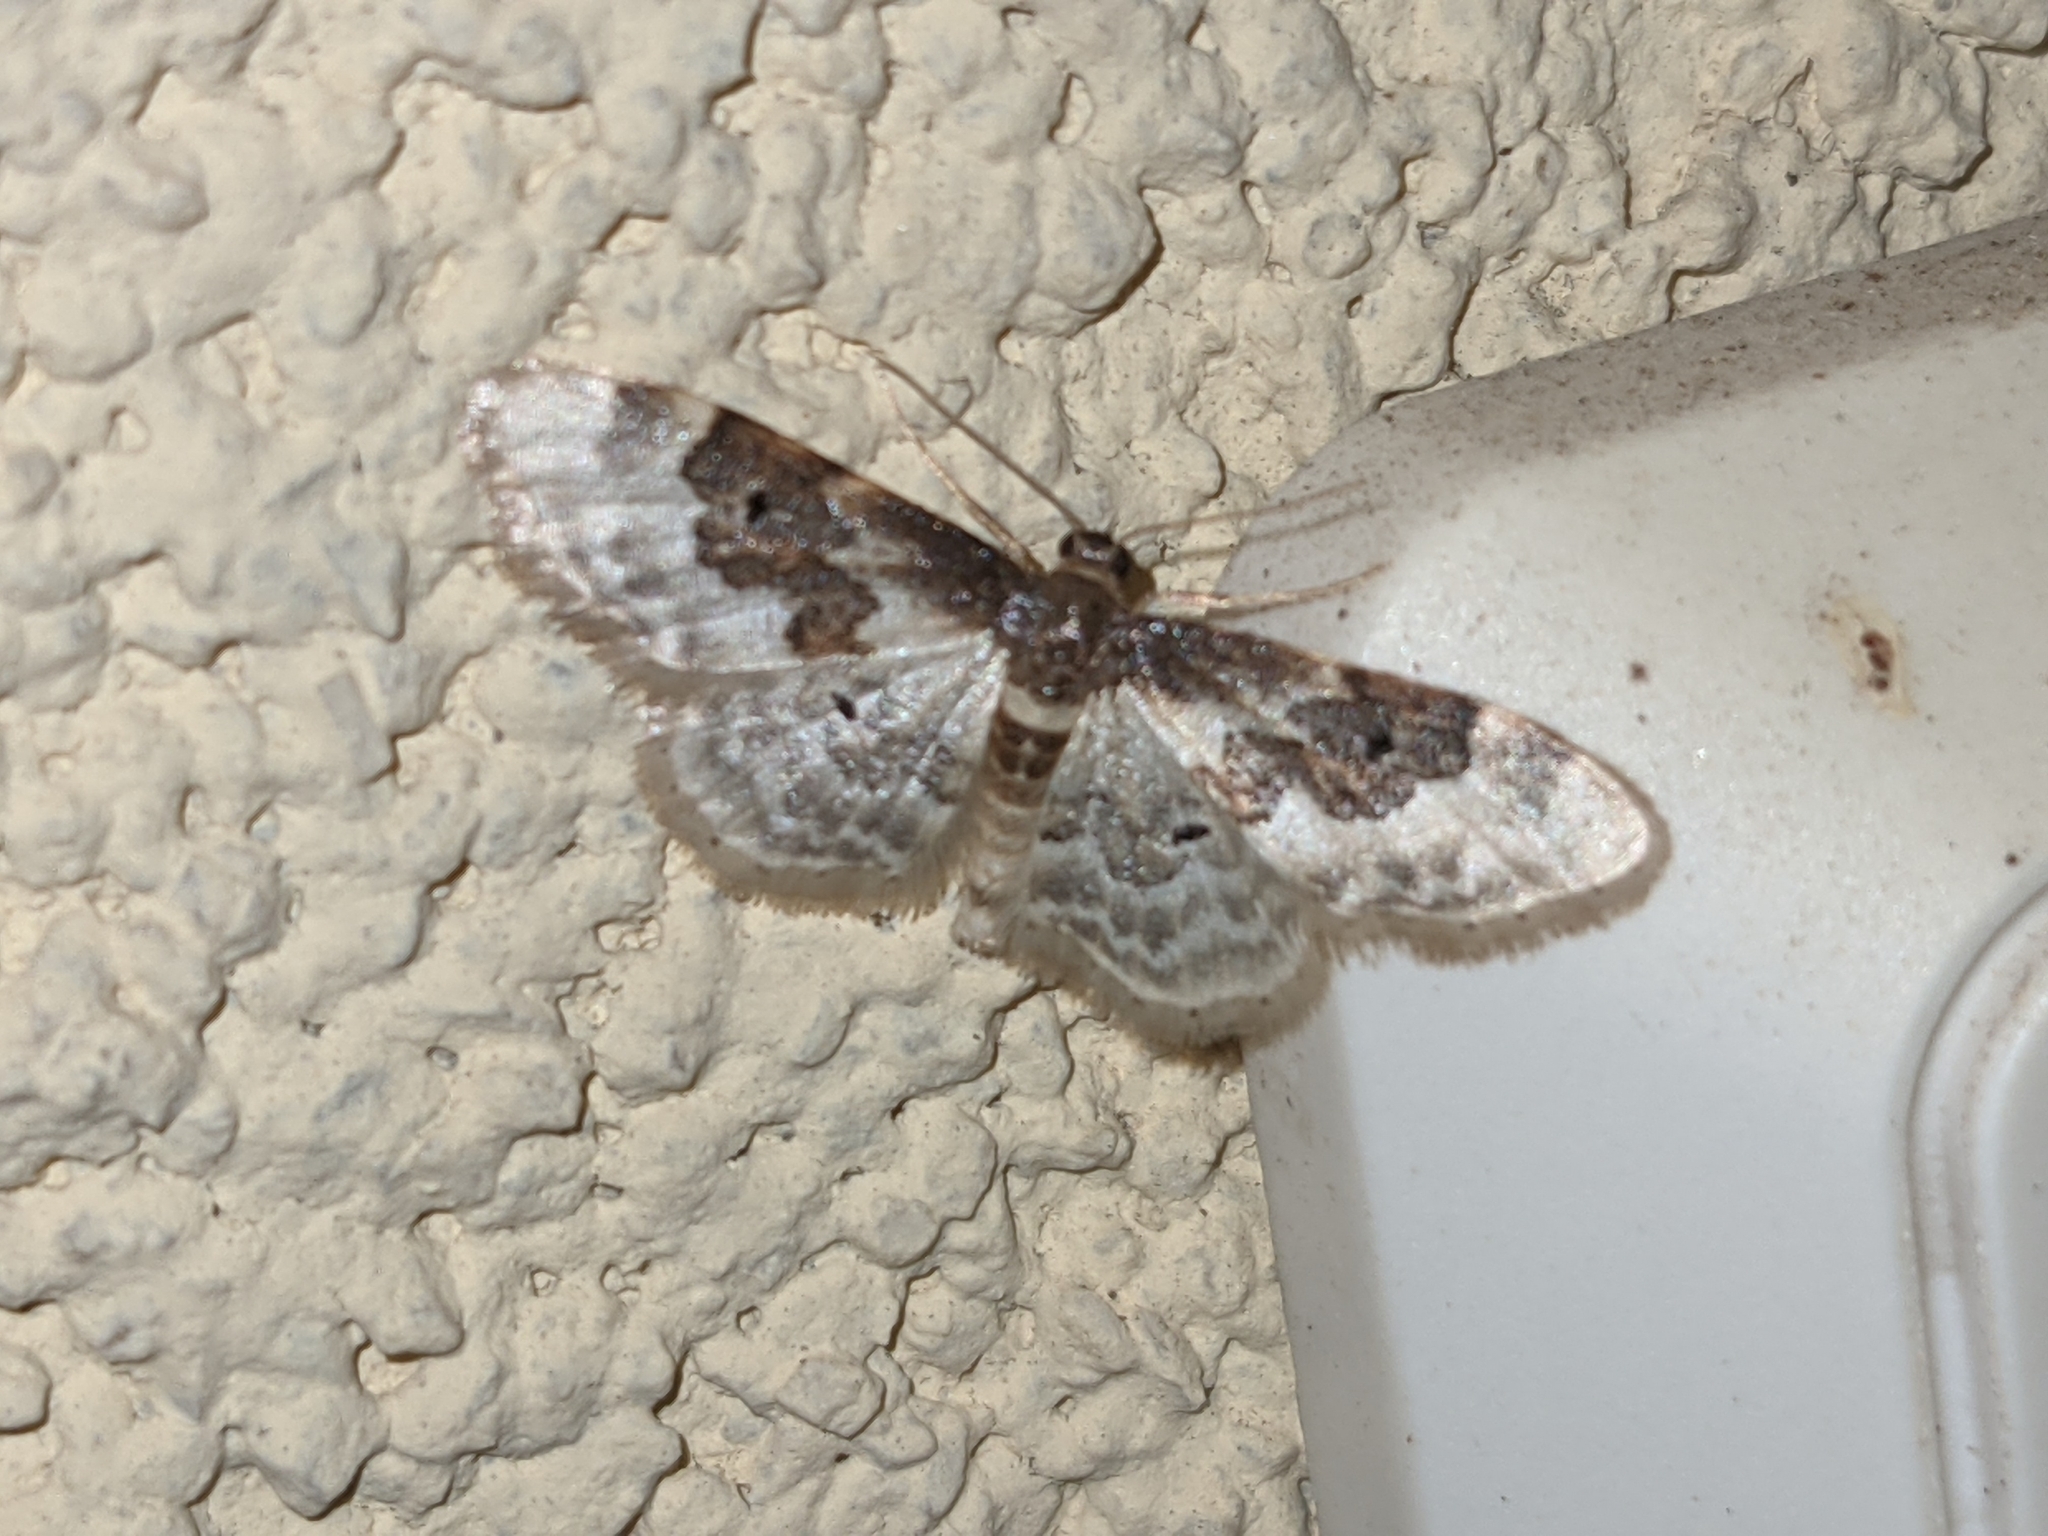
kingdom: Animalia
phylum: Arthropoda
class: Insecta
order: Lepidoptera
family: Geometridae
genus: Idaea
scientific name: Idaea rusticata
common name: Least carpet
